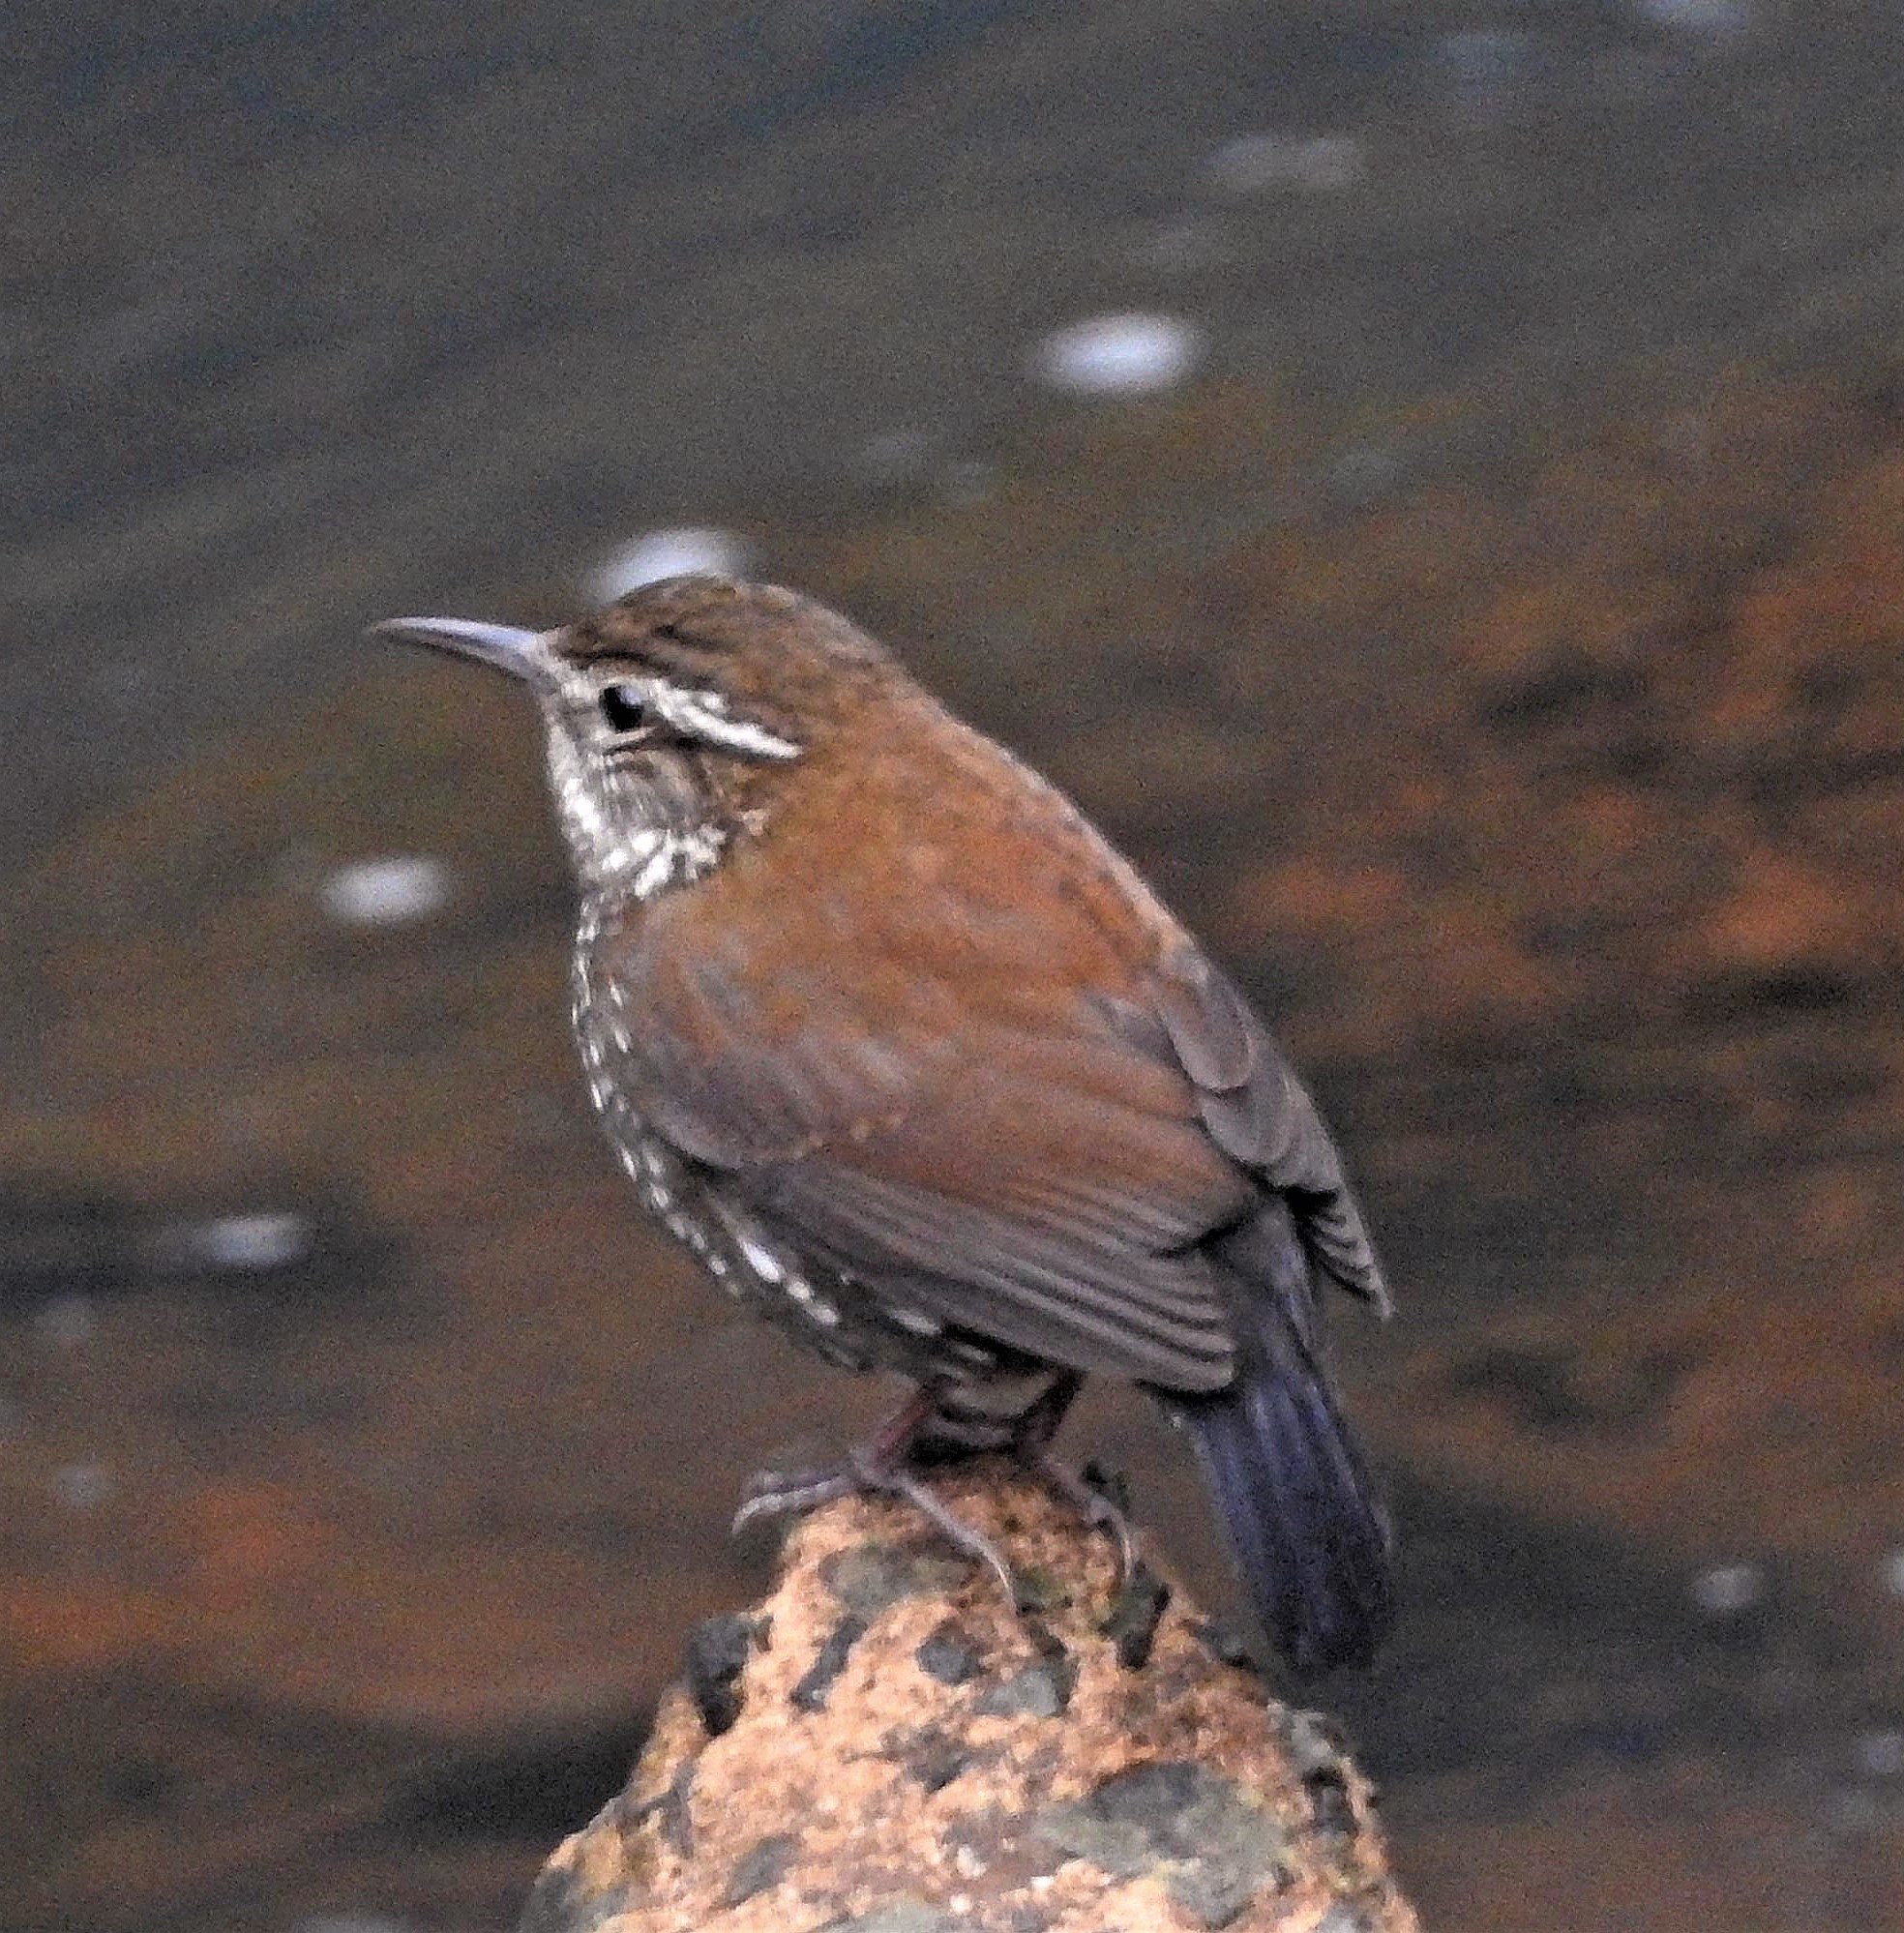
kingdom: Animalia
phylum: Chordata
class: Aves
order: Passeriformes
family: Furnariidae
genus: Lochmias
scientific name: Lochmias nematura
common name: Sharp-tailed streamcreeper
